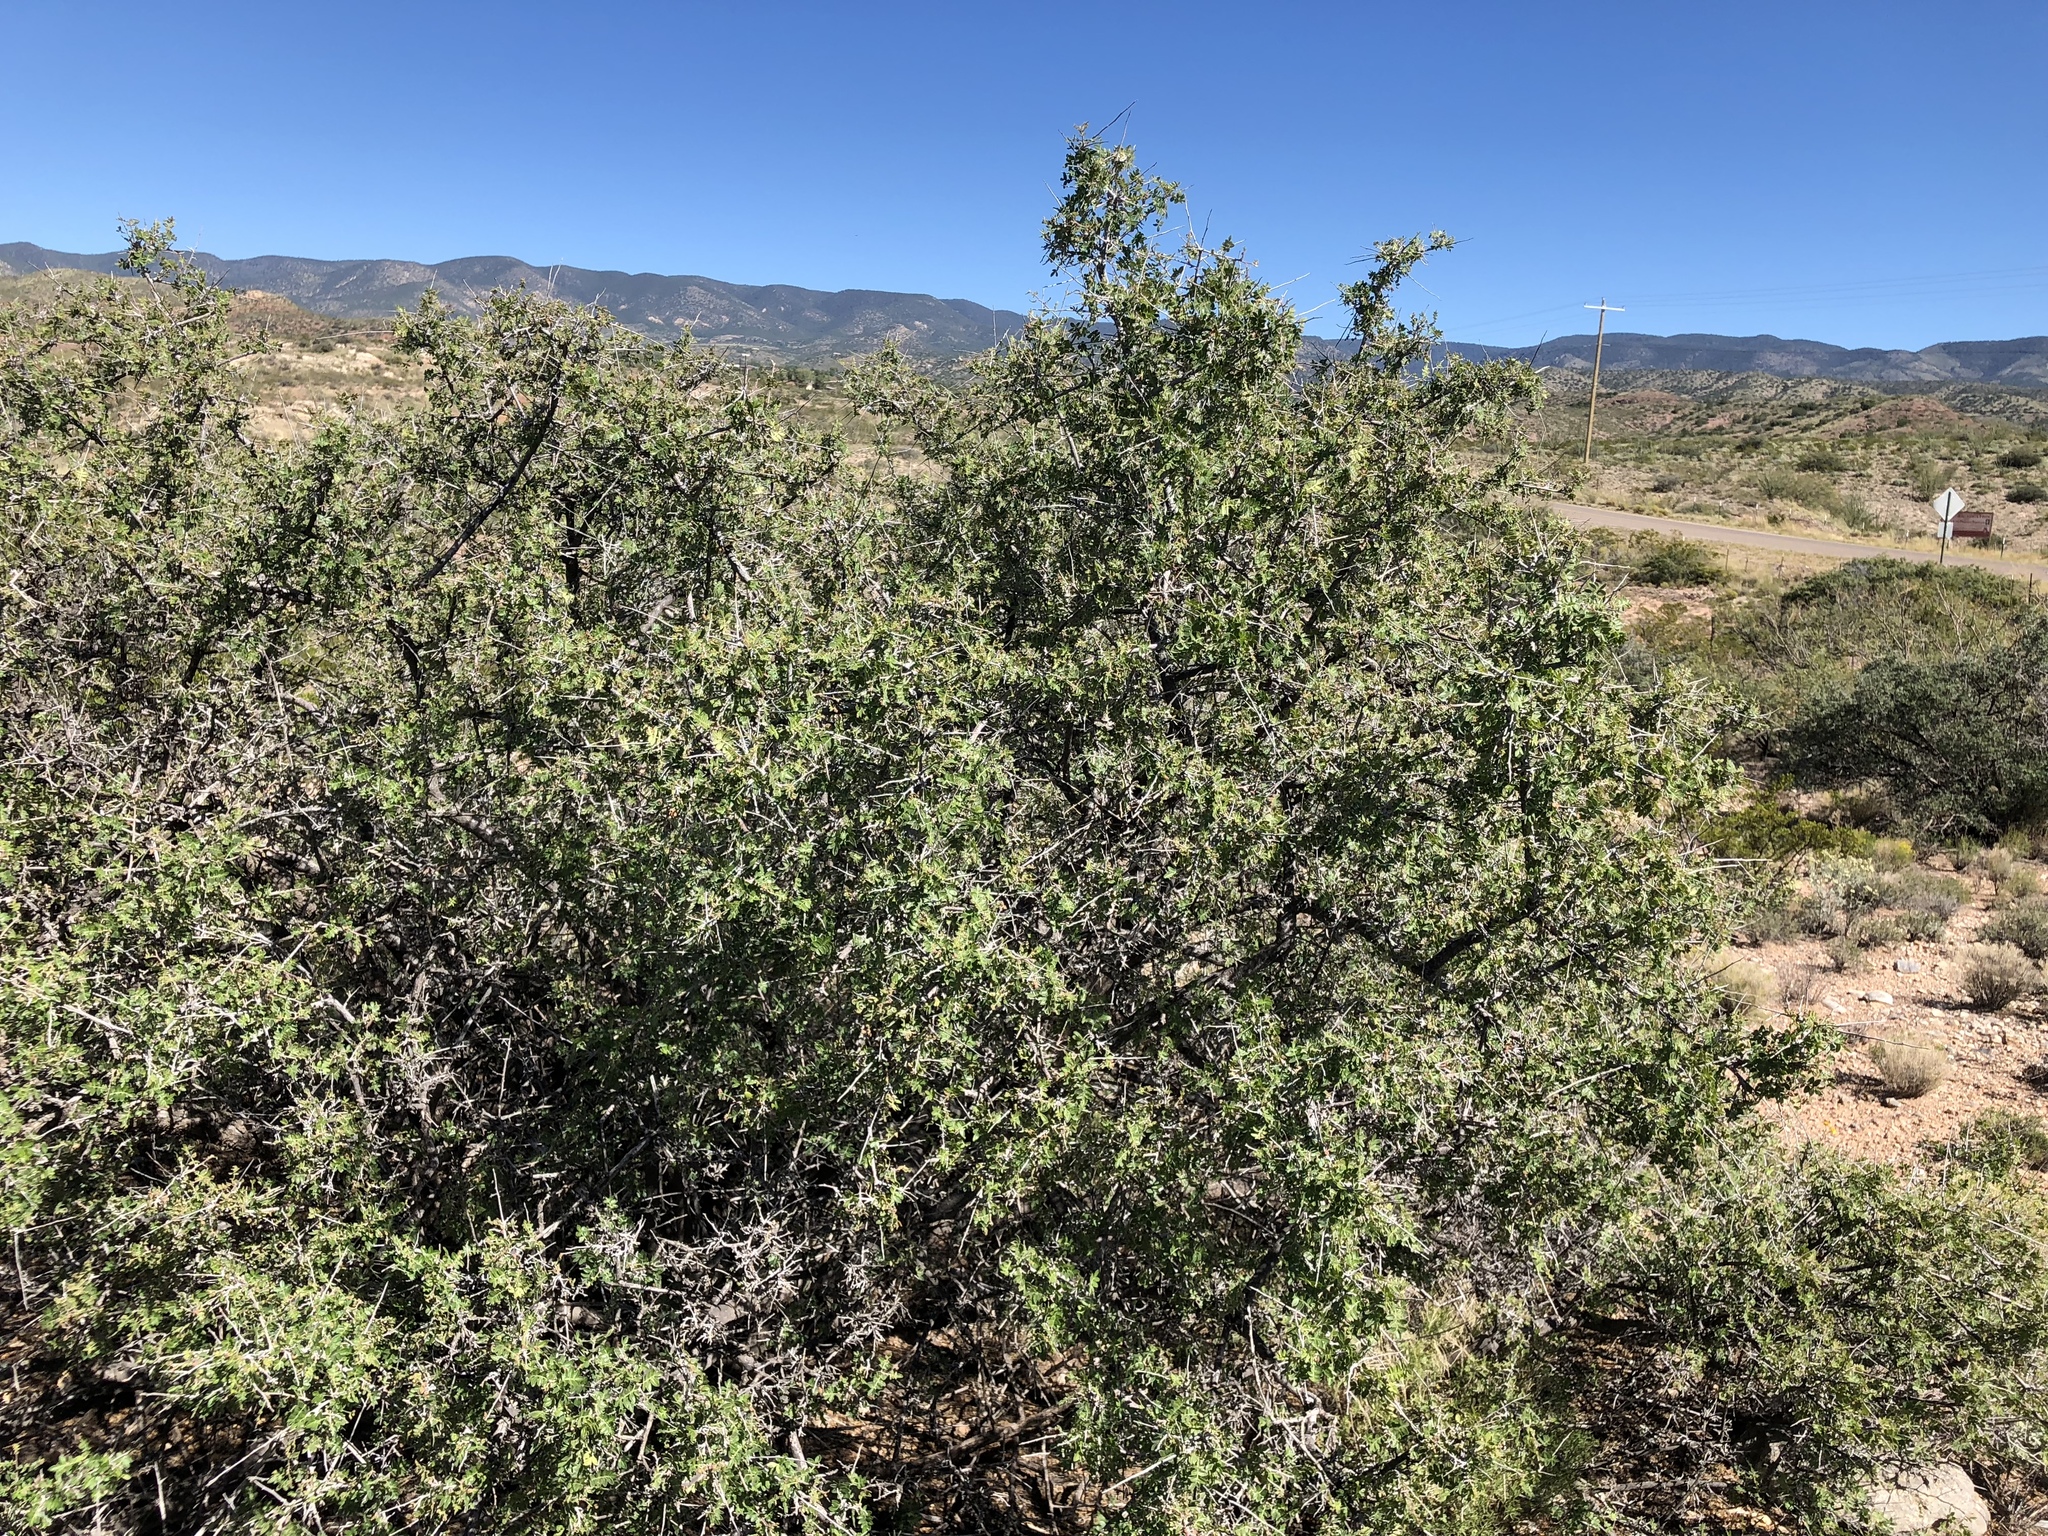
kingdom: Plantae
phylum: Tracheophyta
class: Magnoliopsida
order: Sapindales
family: Anacardiaceae
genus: Rhus
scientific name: Rhus microphylla
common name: Desert sumac
